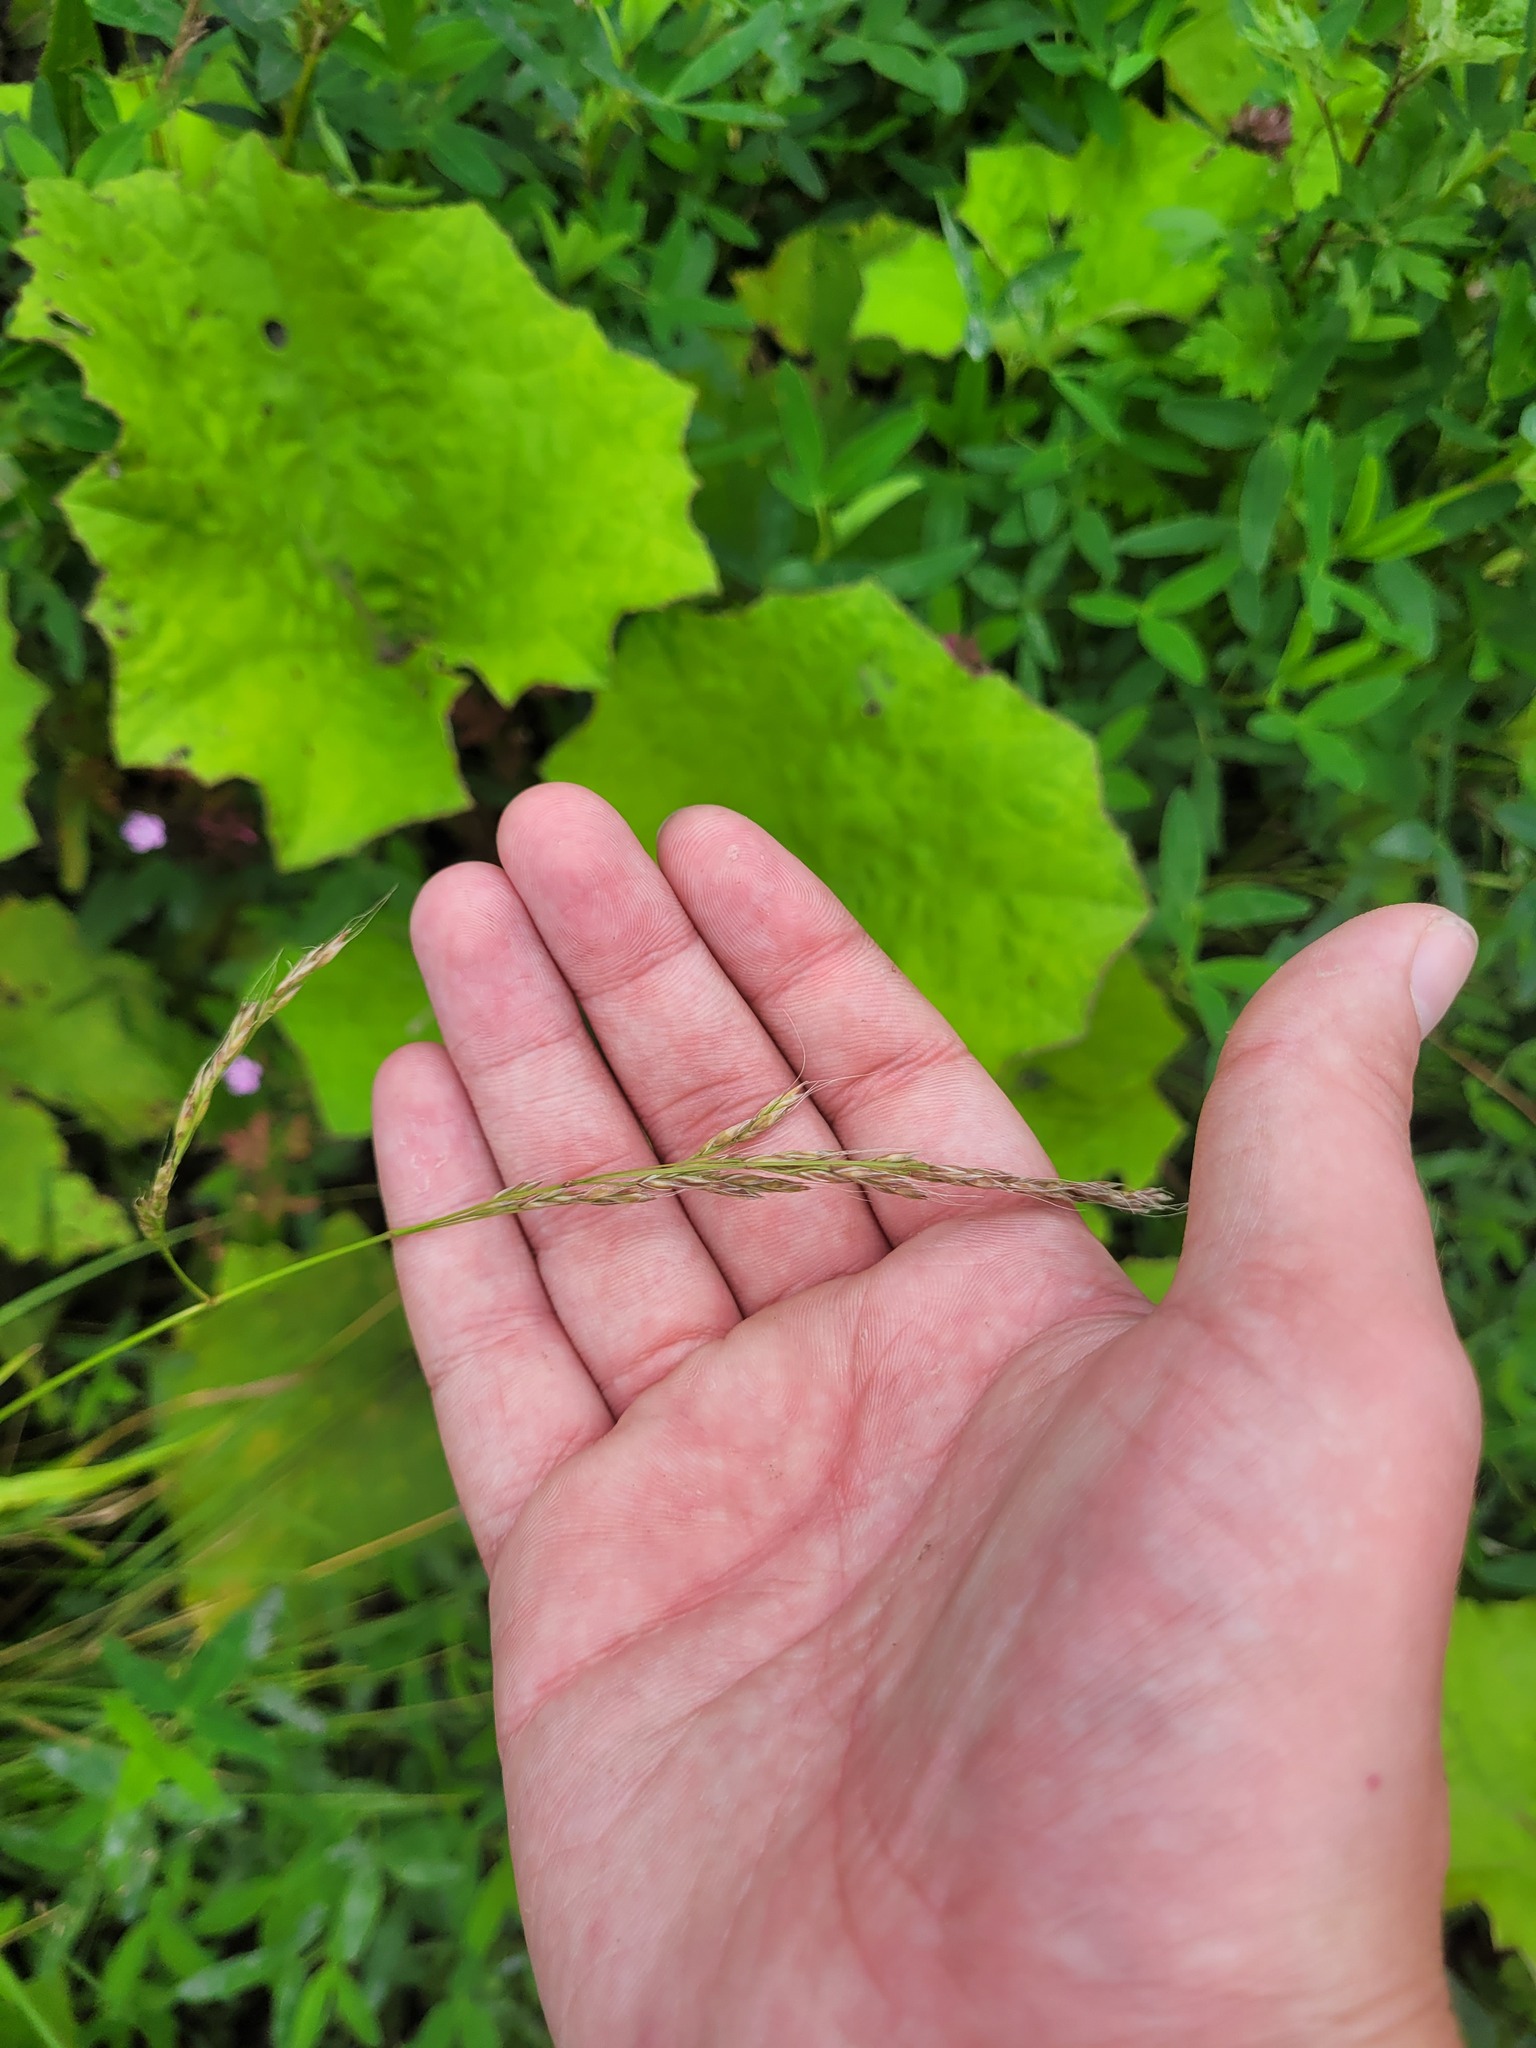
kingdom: Plantae
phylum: Tracheophyta
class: Liliopsida
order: Poales
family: Poaceae
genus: Lolium
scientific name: Lolium giganteum
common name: Giant fescue
